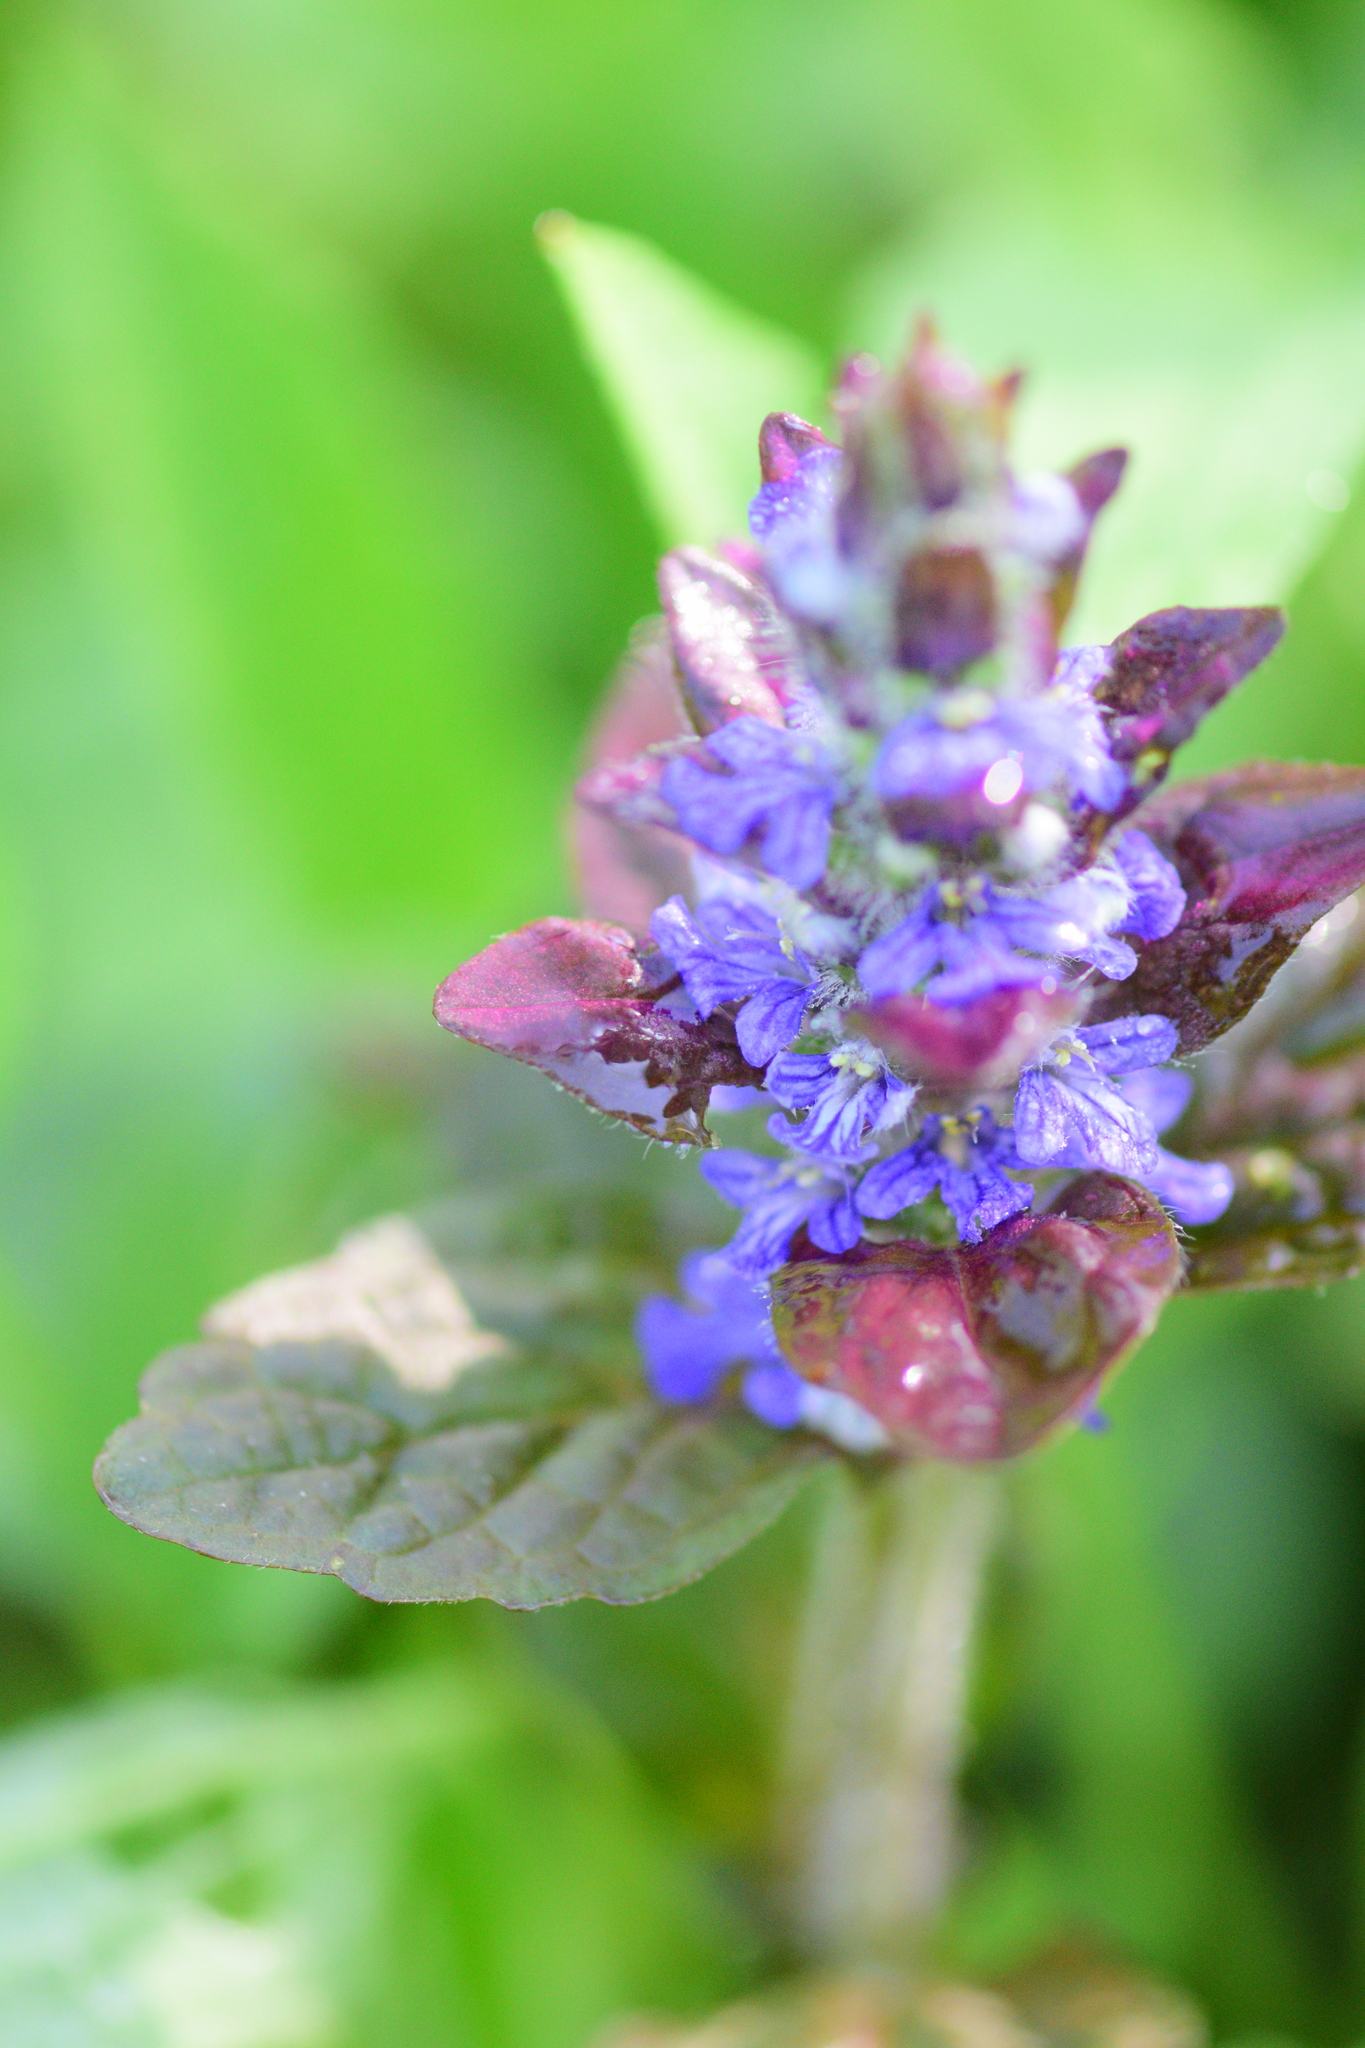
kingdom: Plantae
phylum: Tracheophyta
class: Magnoliopsida
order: Lamiales
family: Lamiaceae
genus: Ajuga
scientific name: Ajuga reptans
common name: Bugle
